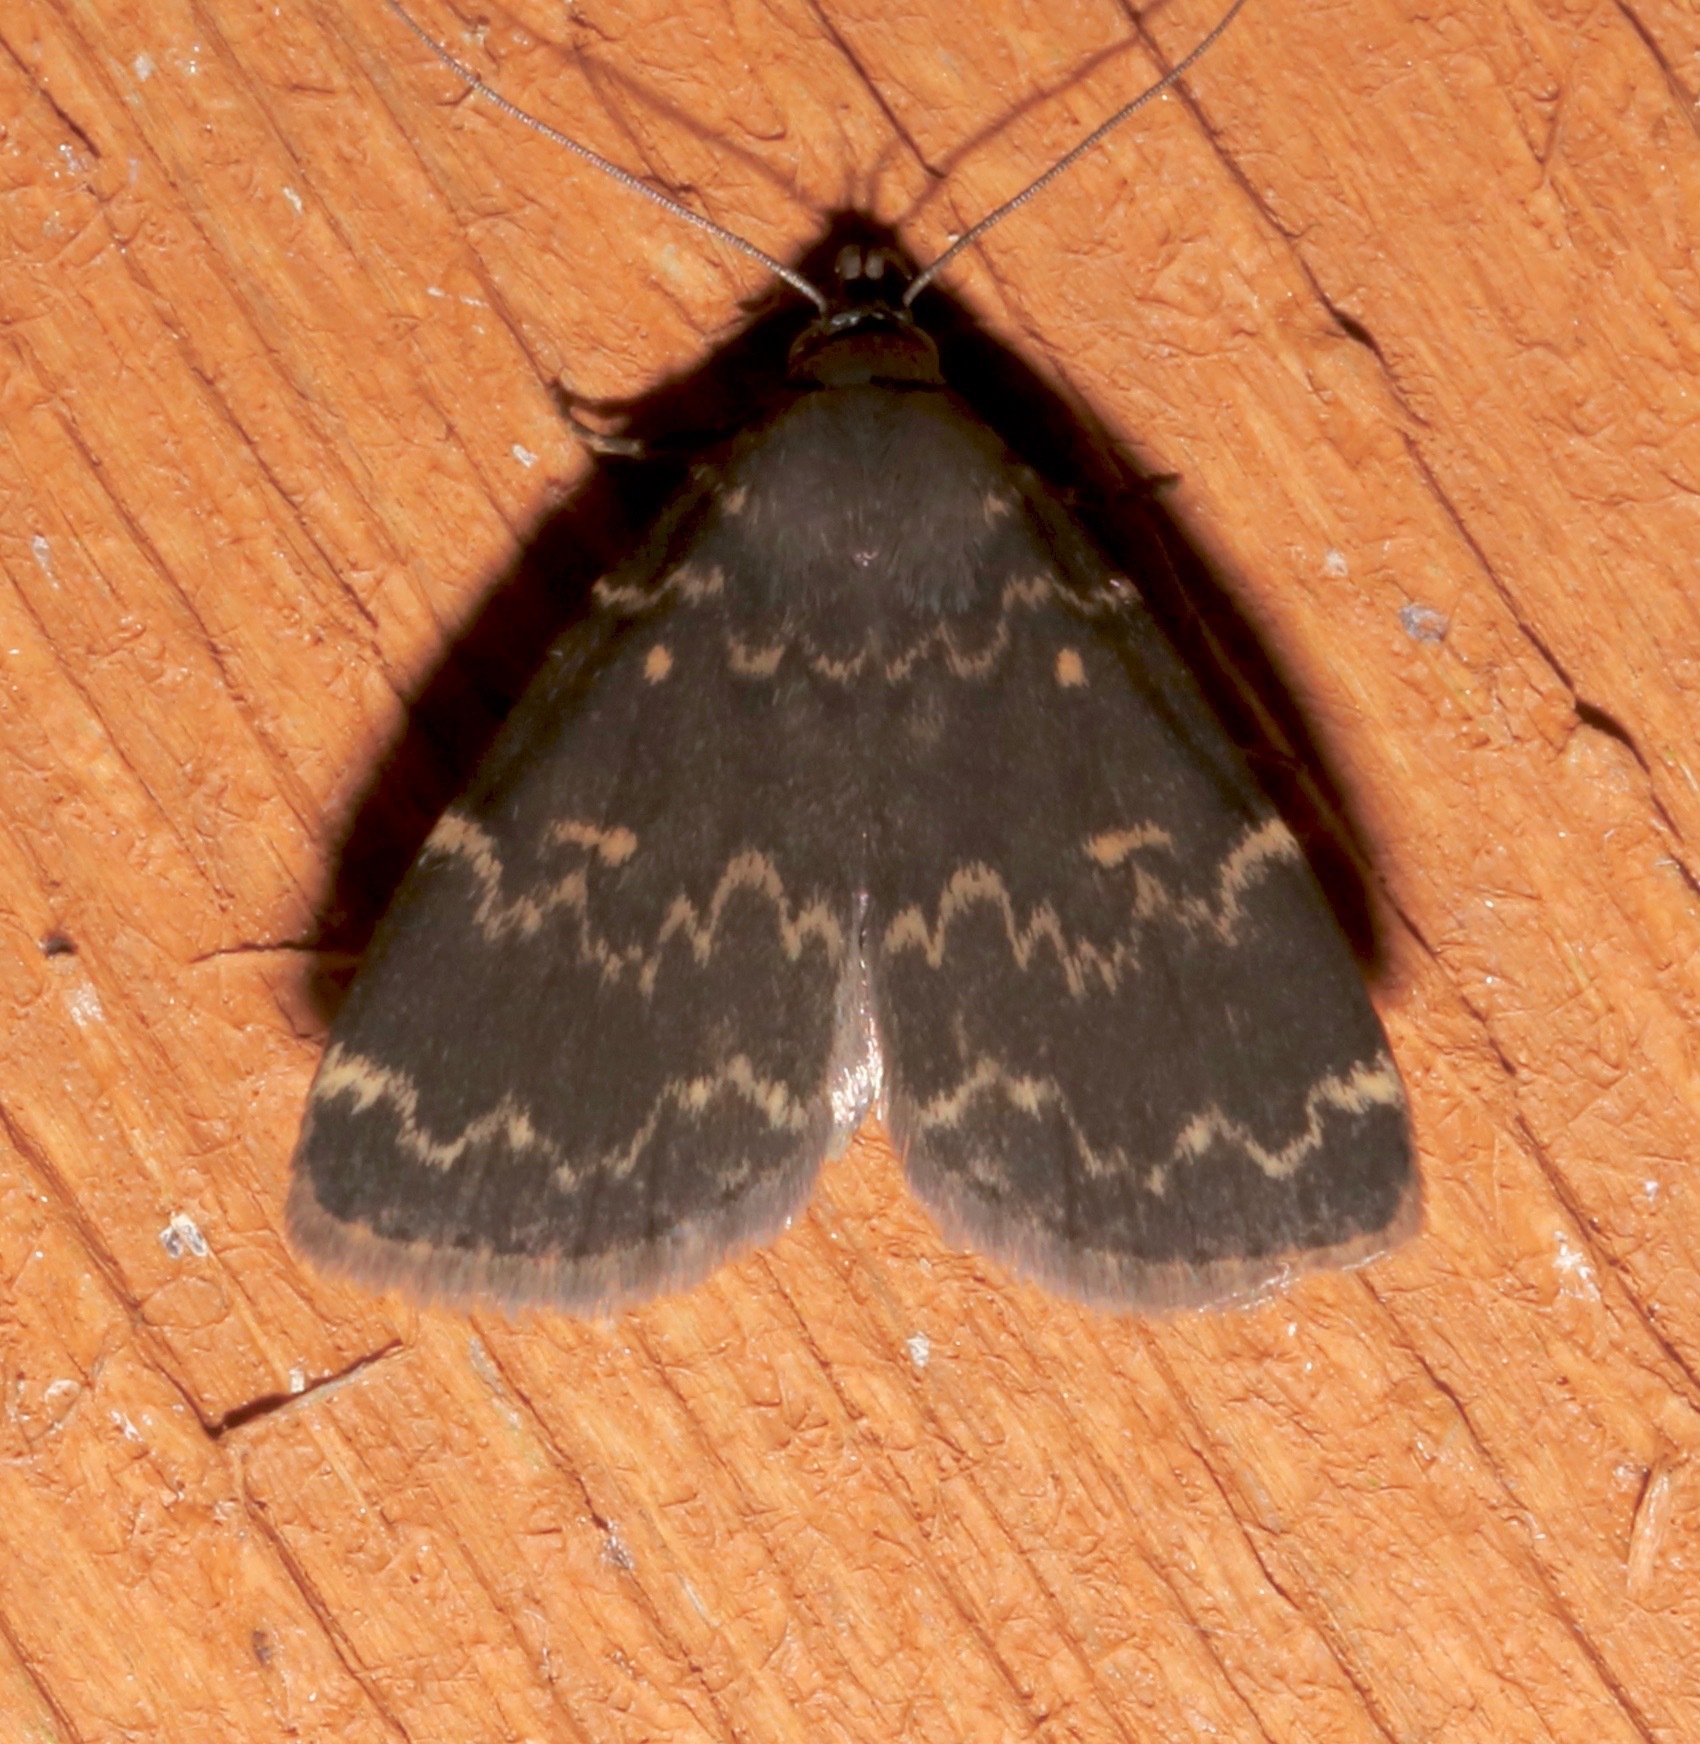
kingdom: Animalia
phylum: Arthropoda
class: Insecta
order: Lepidoptera
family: Erebidae
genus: Idia
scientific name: Idia lubricalis
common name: Twin-striped tabby
